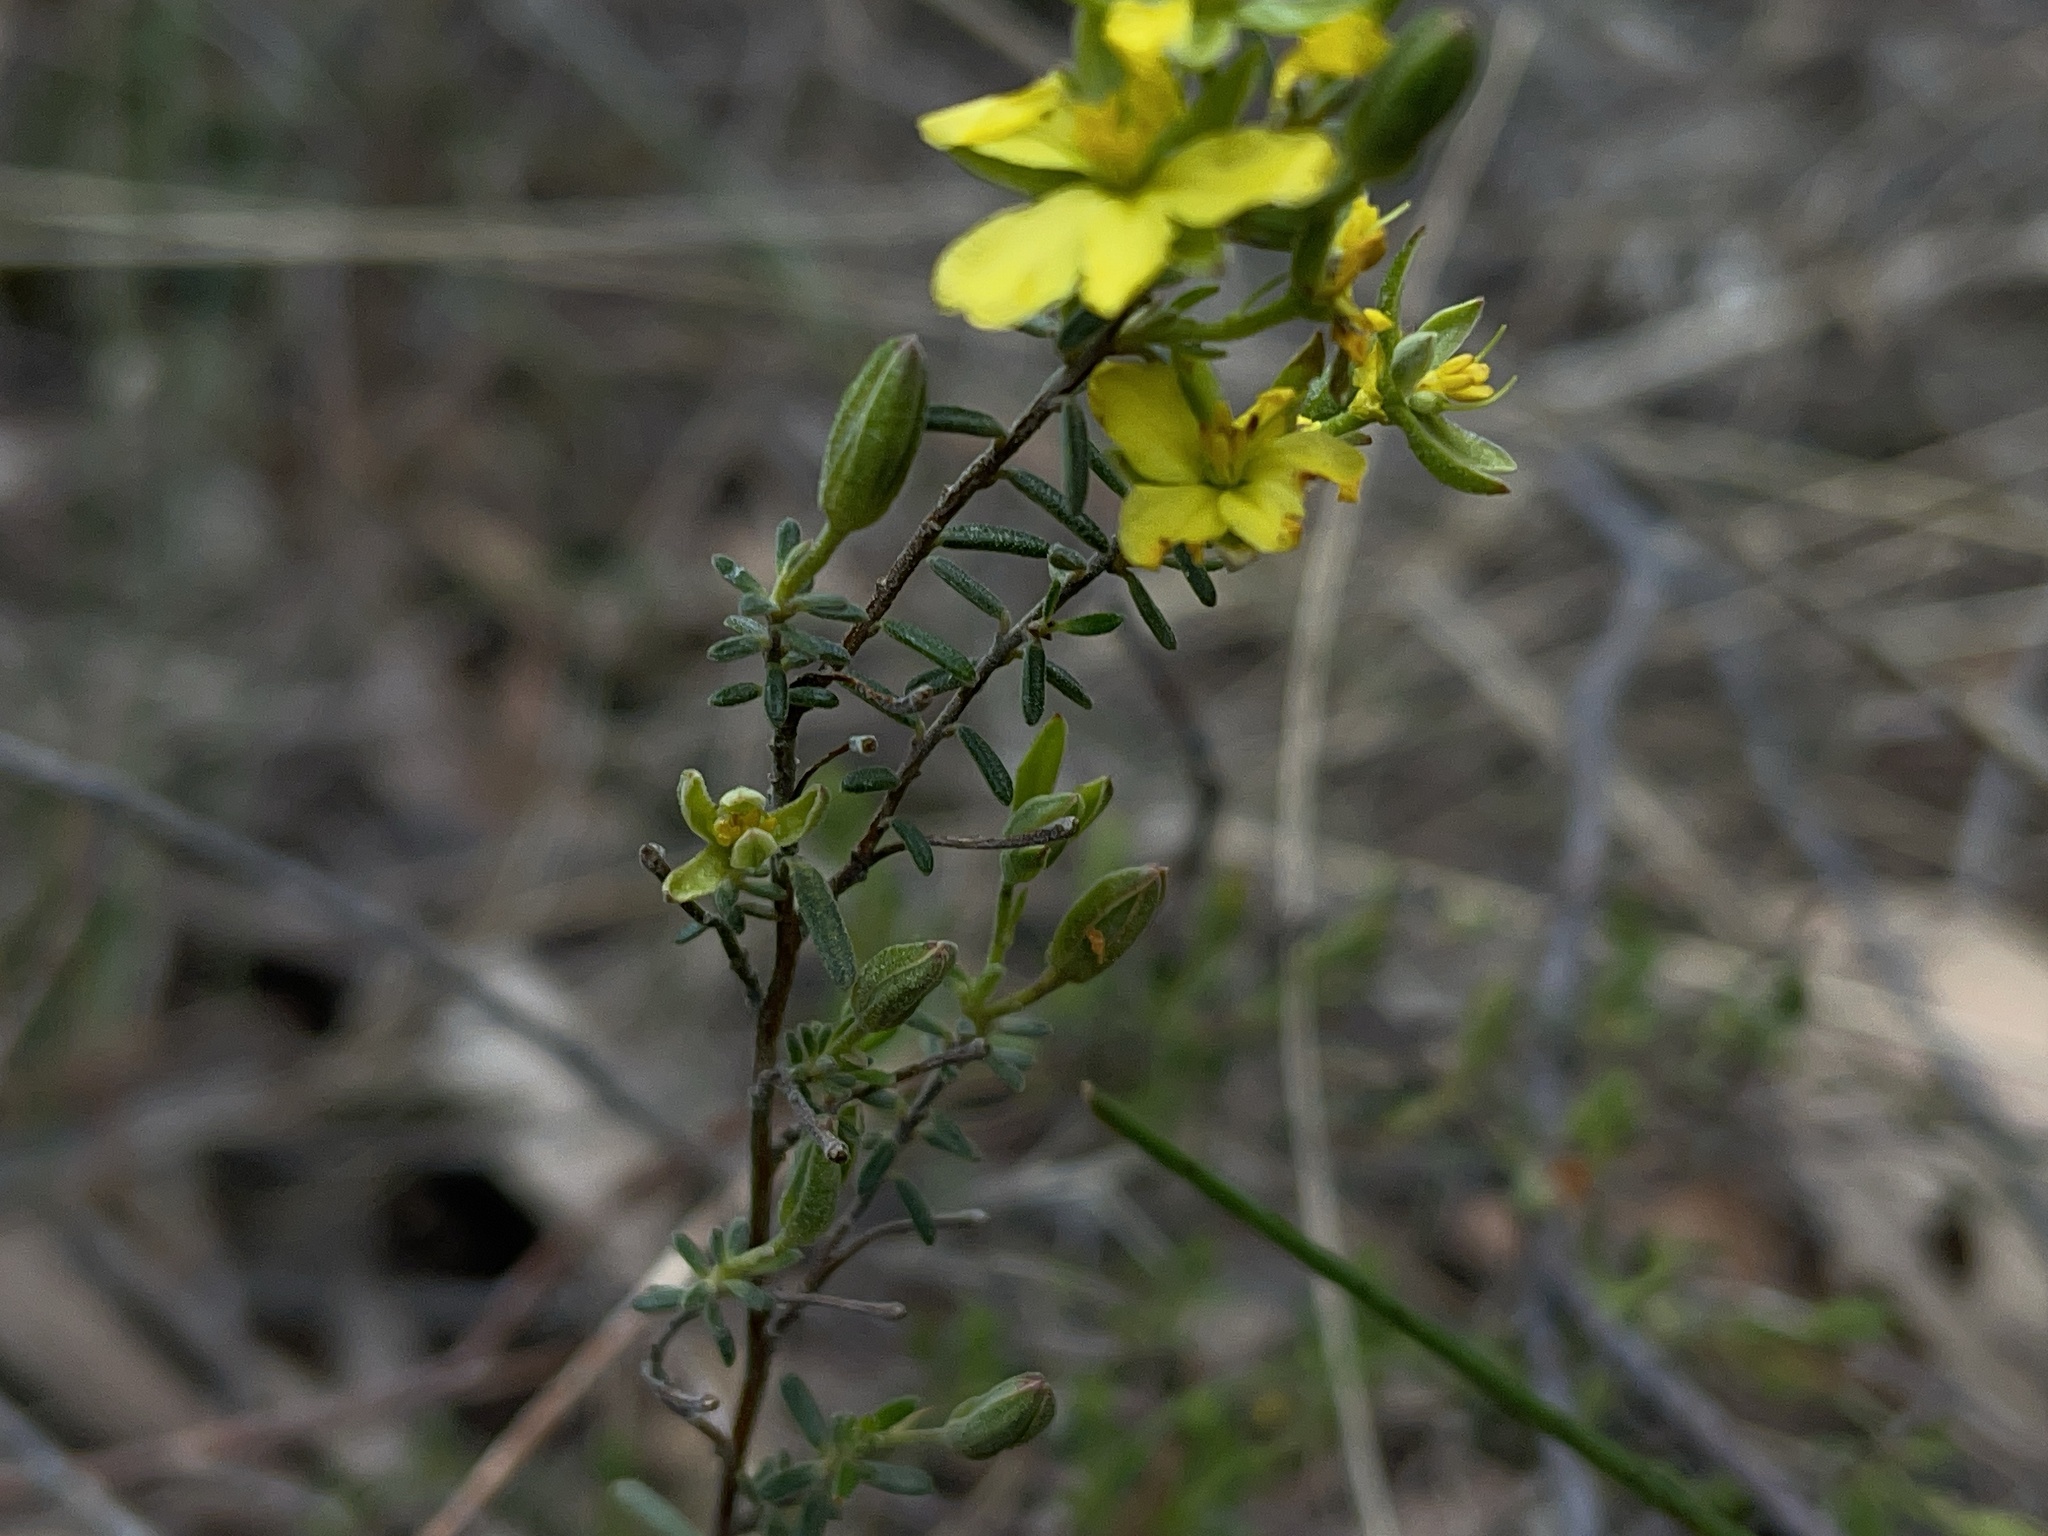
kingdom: Plantae
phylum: Tracheophyta
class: Magnoliopsida
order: Dilleniales
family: Dilleniaceae
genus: Hibbertia
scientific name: Hibbertia australis
